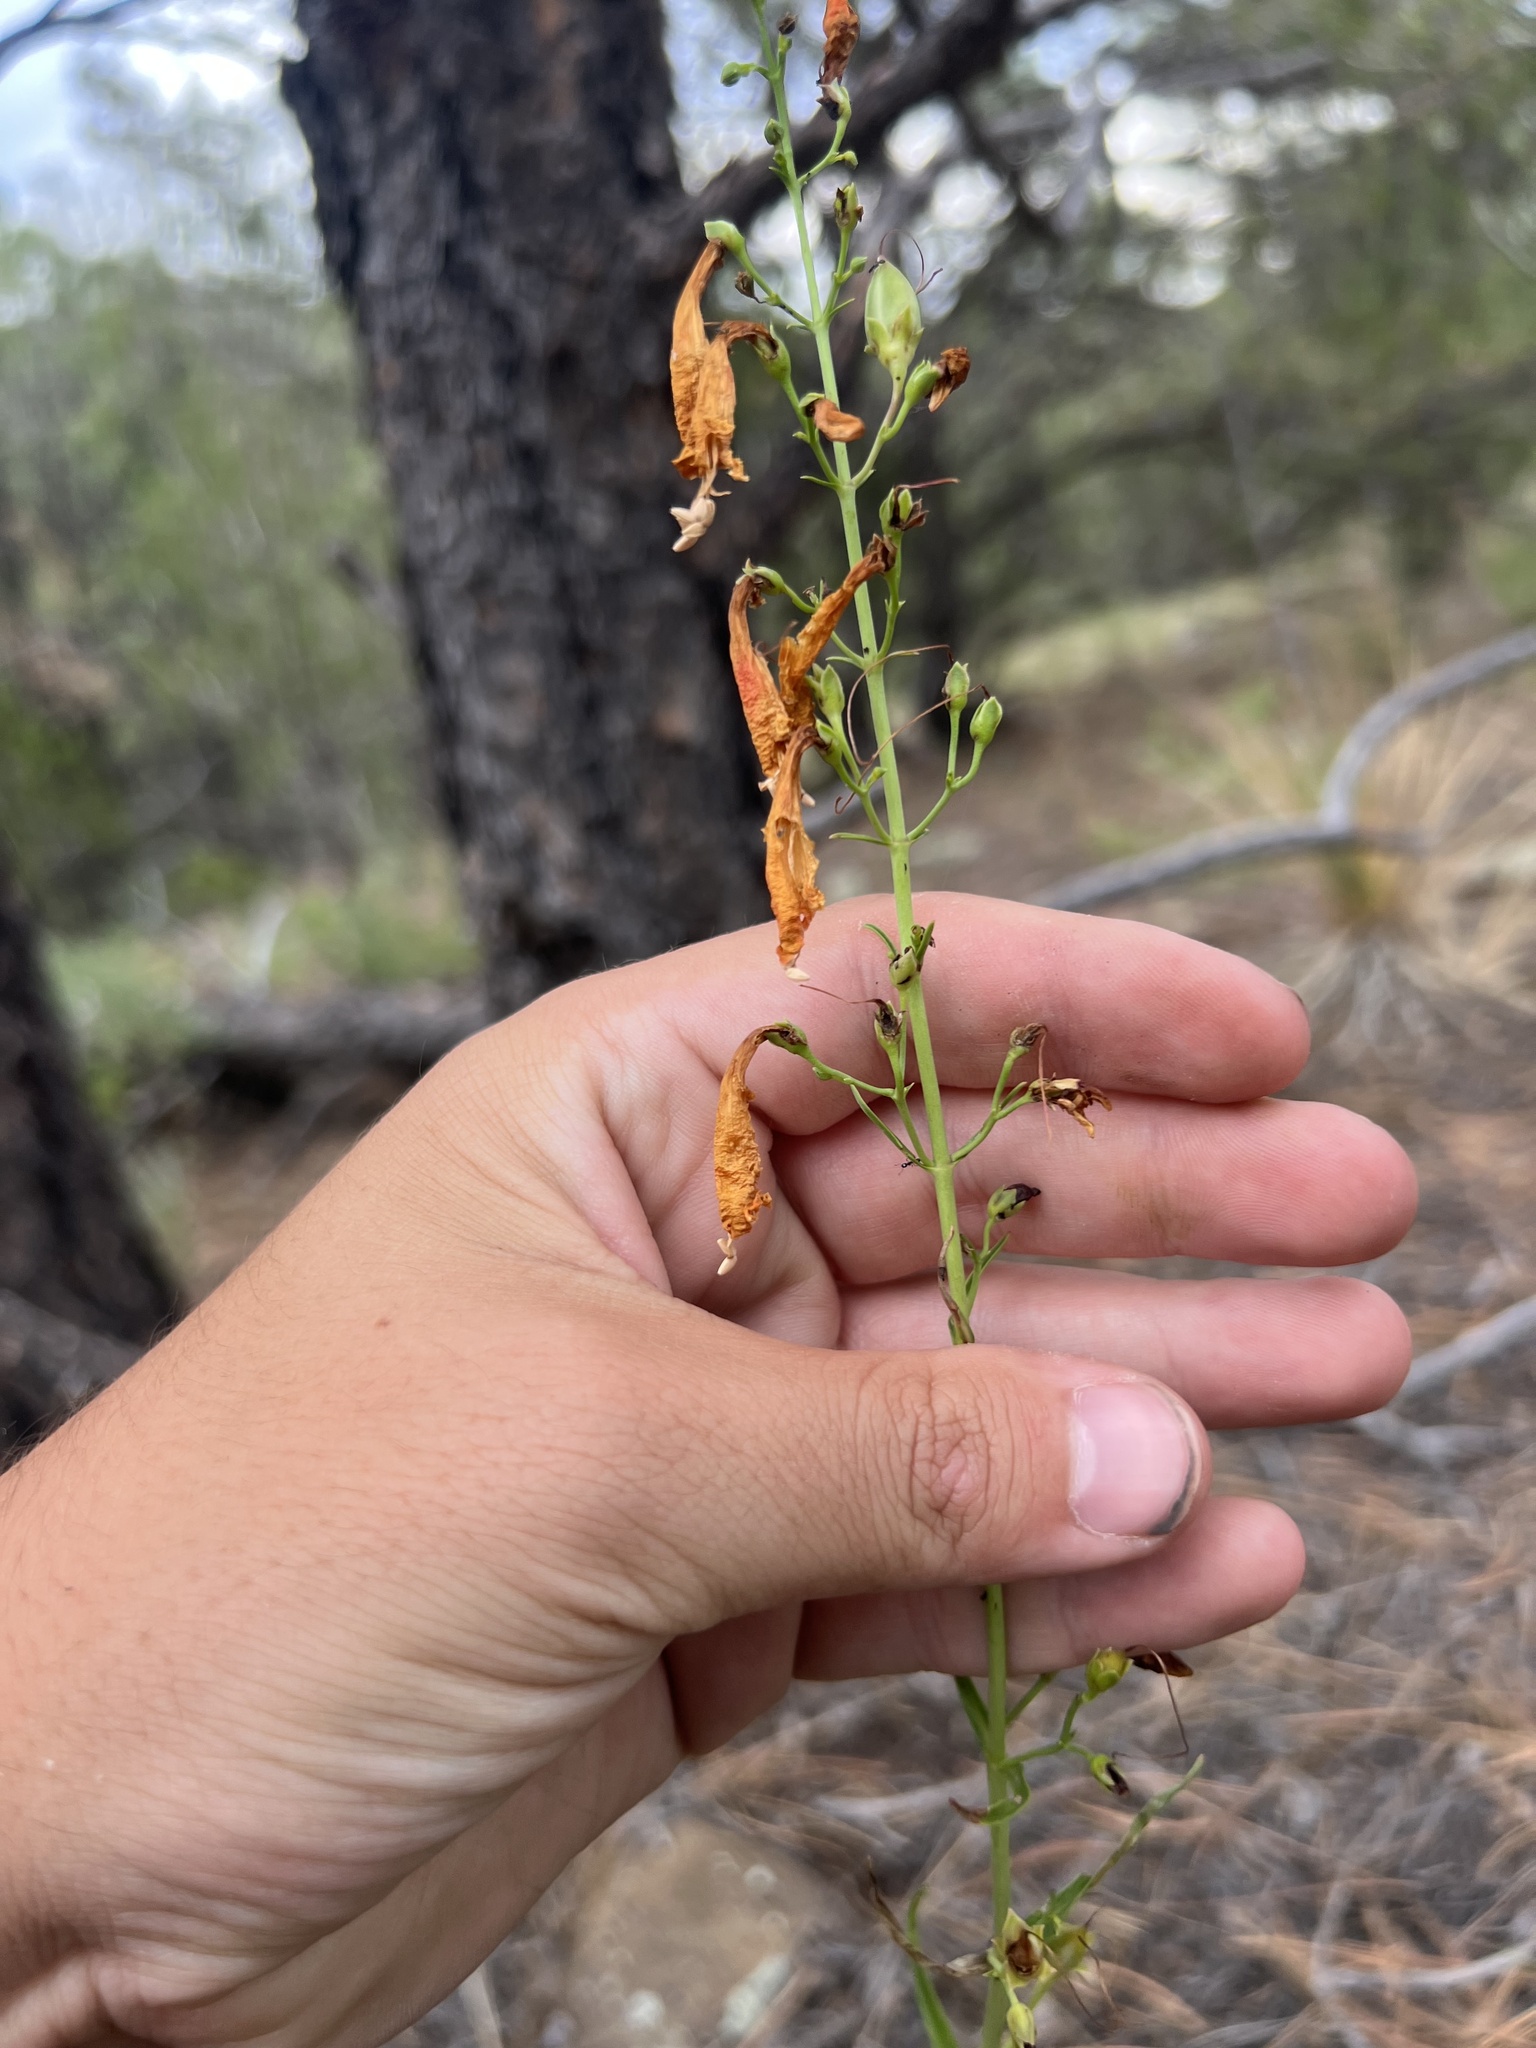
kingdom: Plantae
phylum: Tracheophyta
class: Magnoliopsida
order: Lamiales
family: Plantaginaceae
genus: Penstemon
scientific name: Penstemon barbatus
